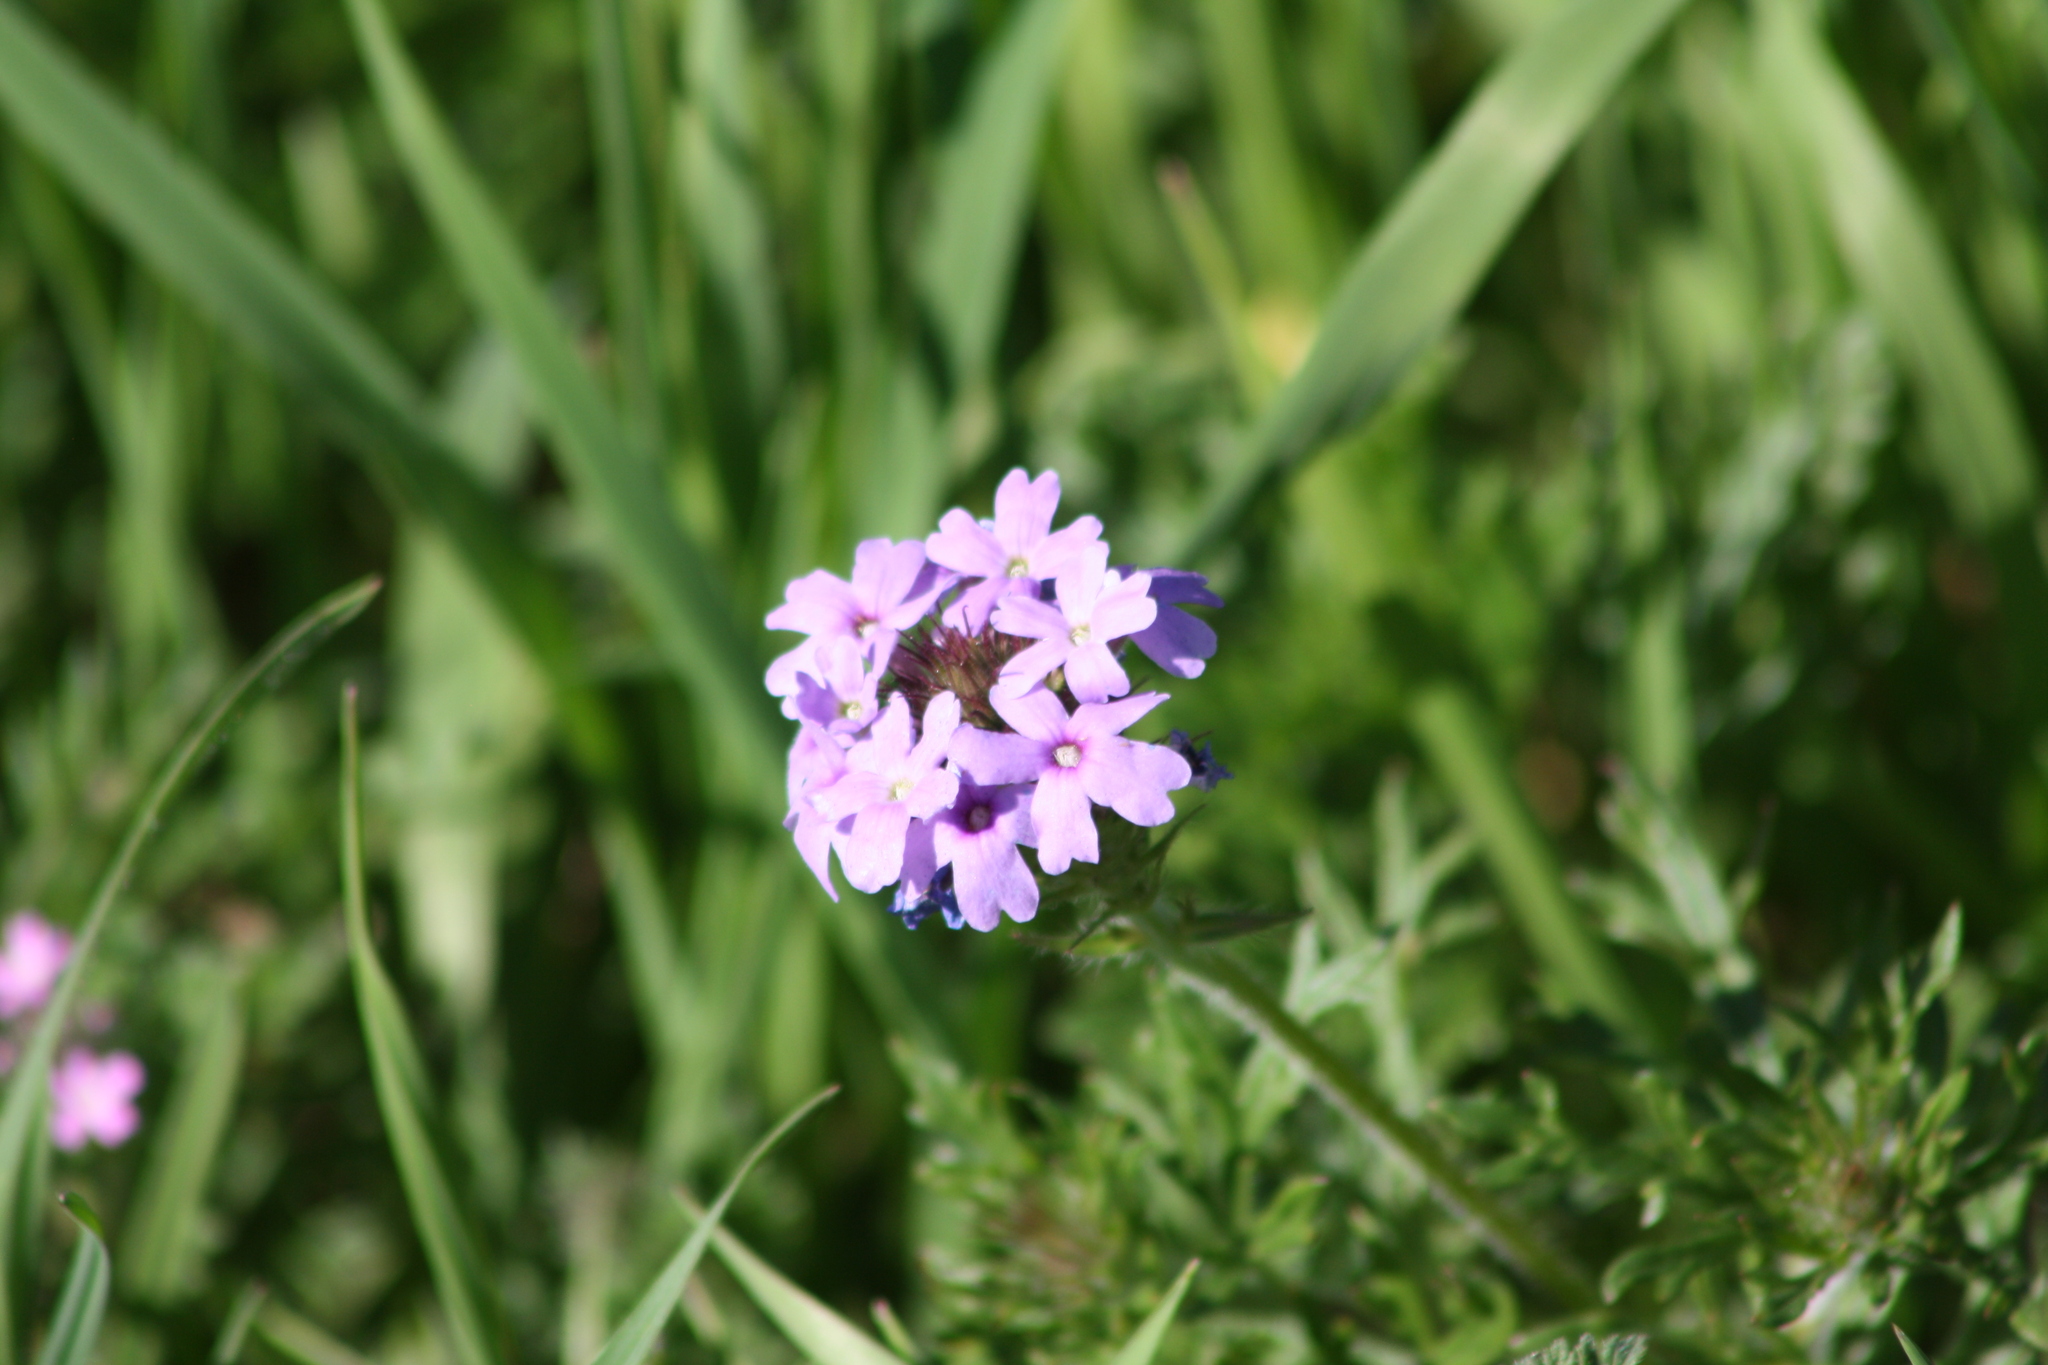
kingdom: Plantae
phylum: Tracheophyta
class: Magnoliopsida
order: Lamiales
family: Verbenaceae
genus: Verbena
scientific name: Verbena bipinnatifida
